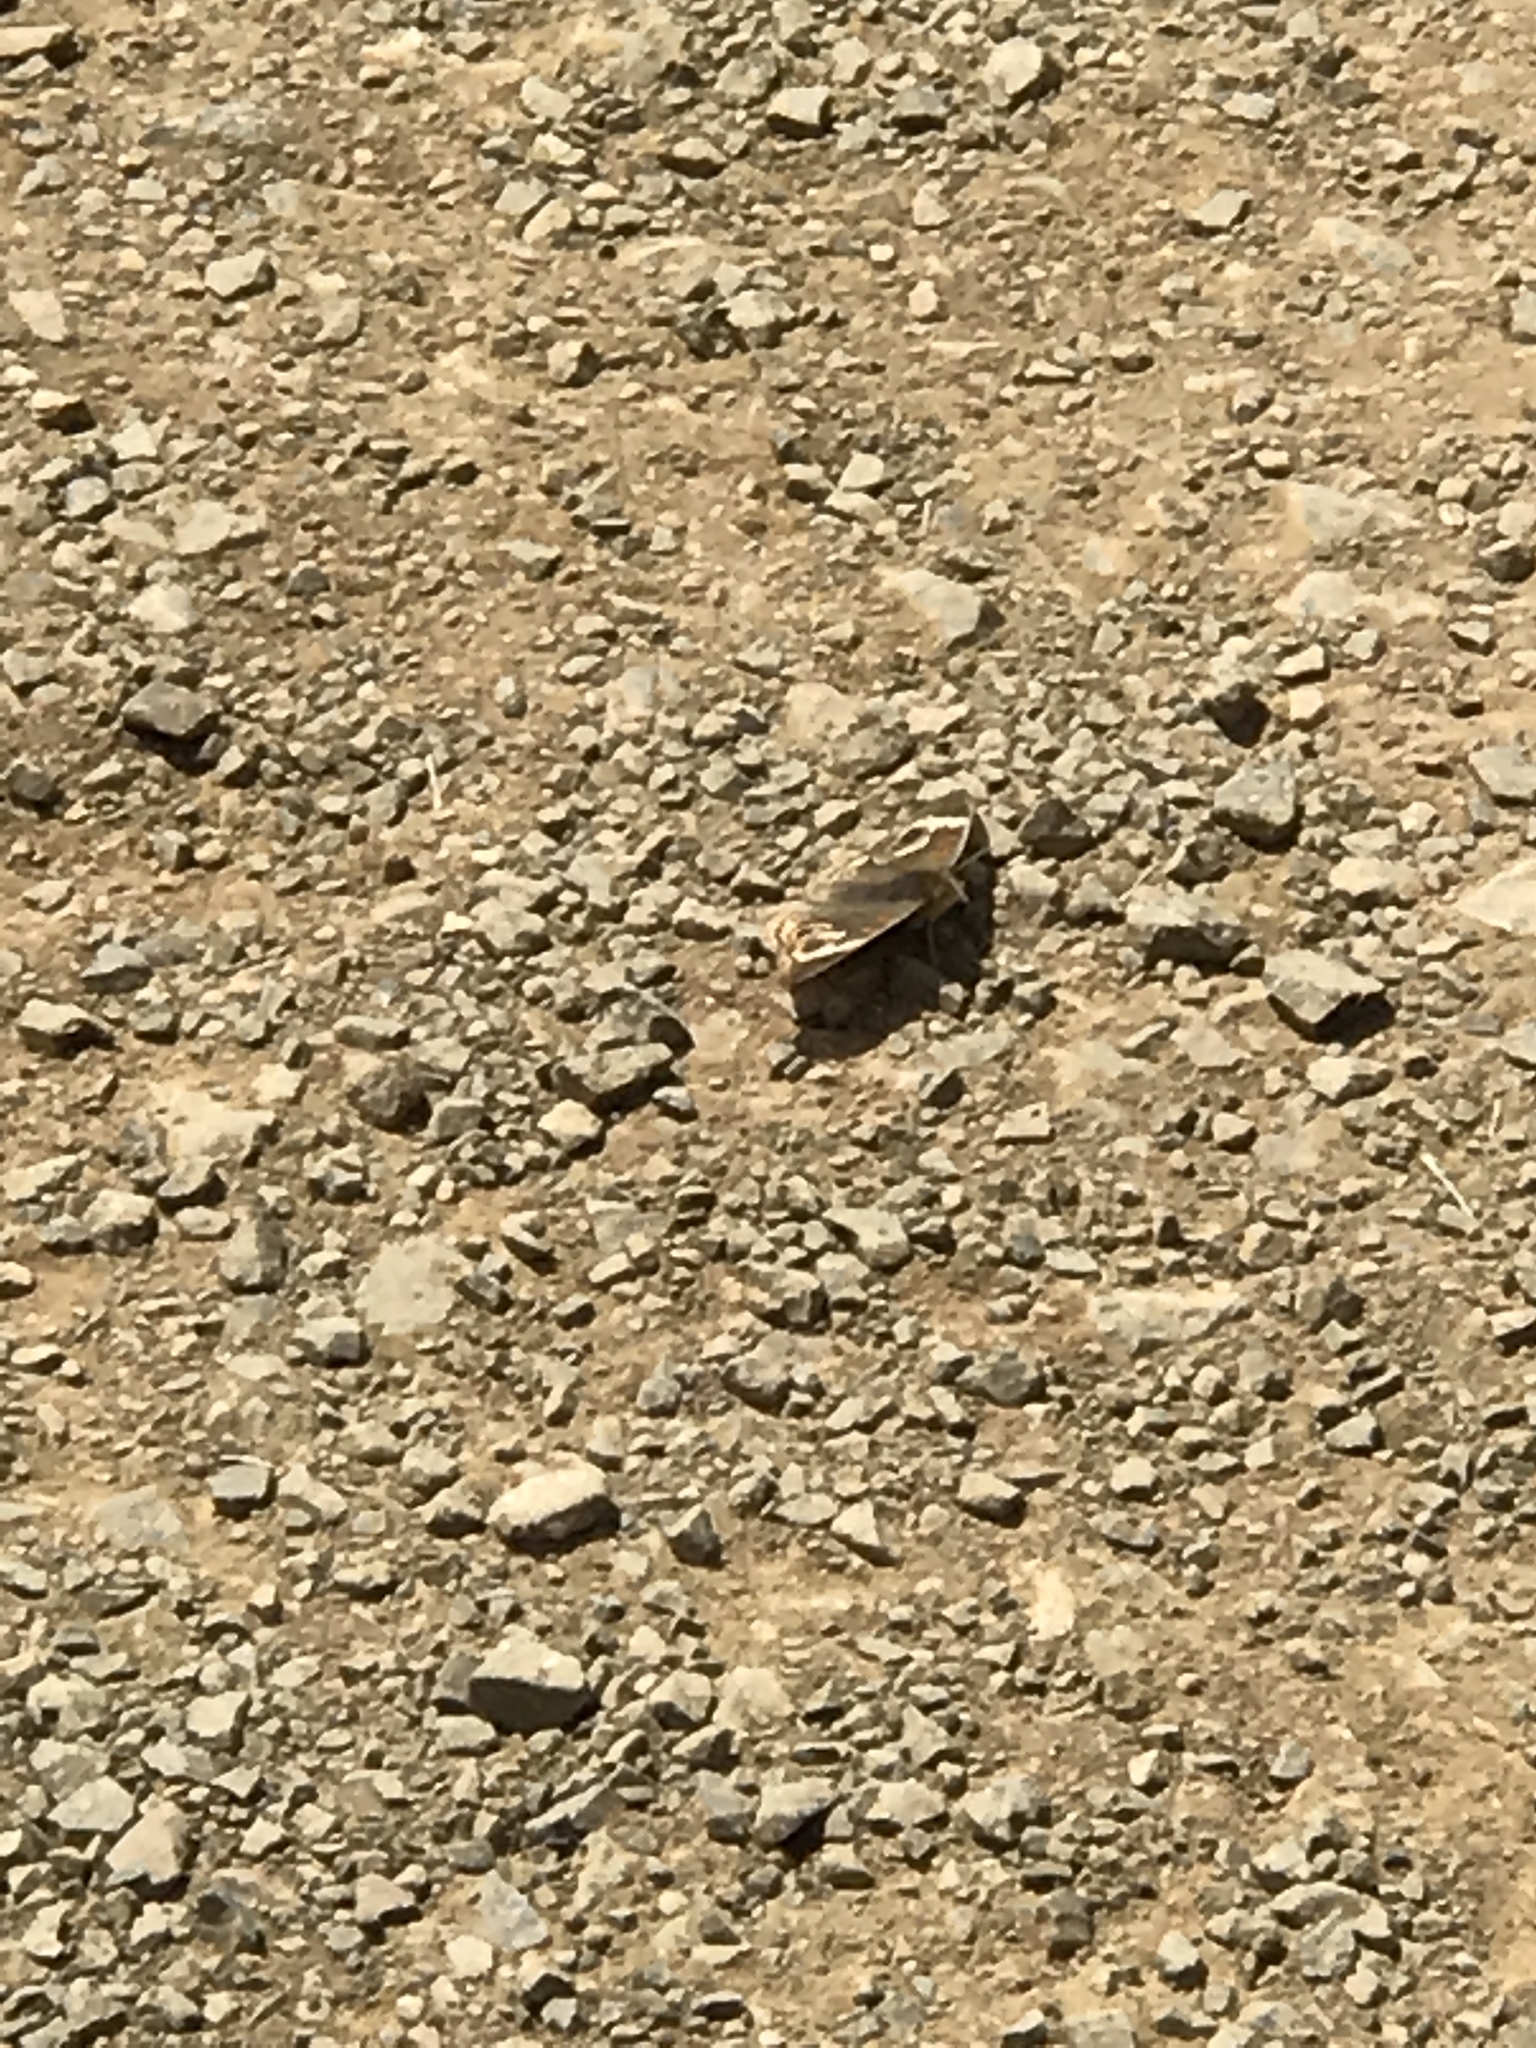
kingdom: Animalia
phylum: Arthropoda
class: Insecta
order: Lepidoptera
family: Nymphalidae
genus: Junonia
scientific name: Junonia grisea
